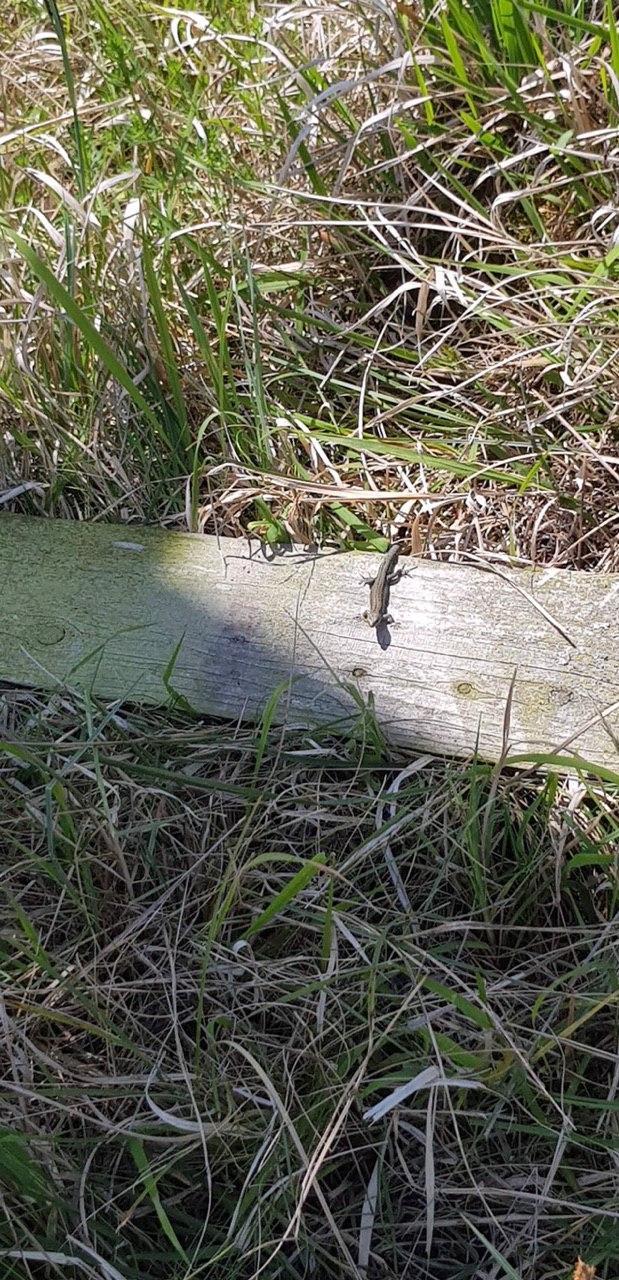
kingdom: Animalia
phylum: Chordata
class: Squamata
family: Lacertidae
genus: Zootoca
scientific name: Zootoca vivipara
